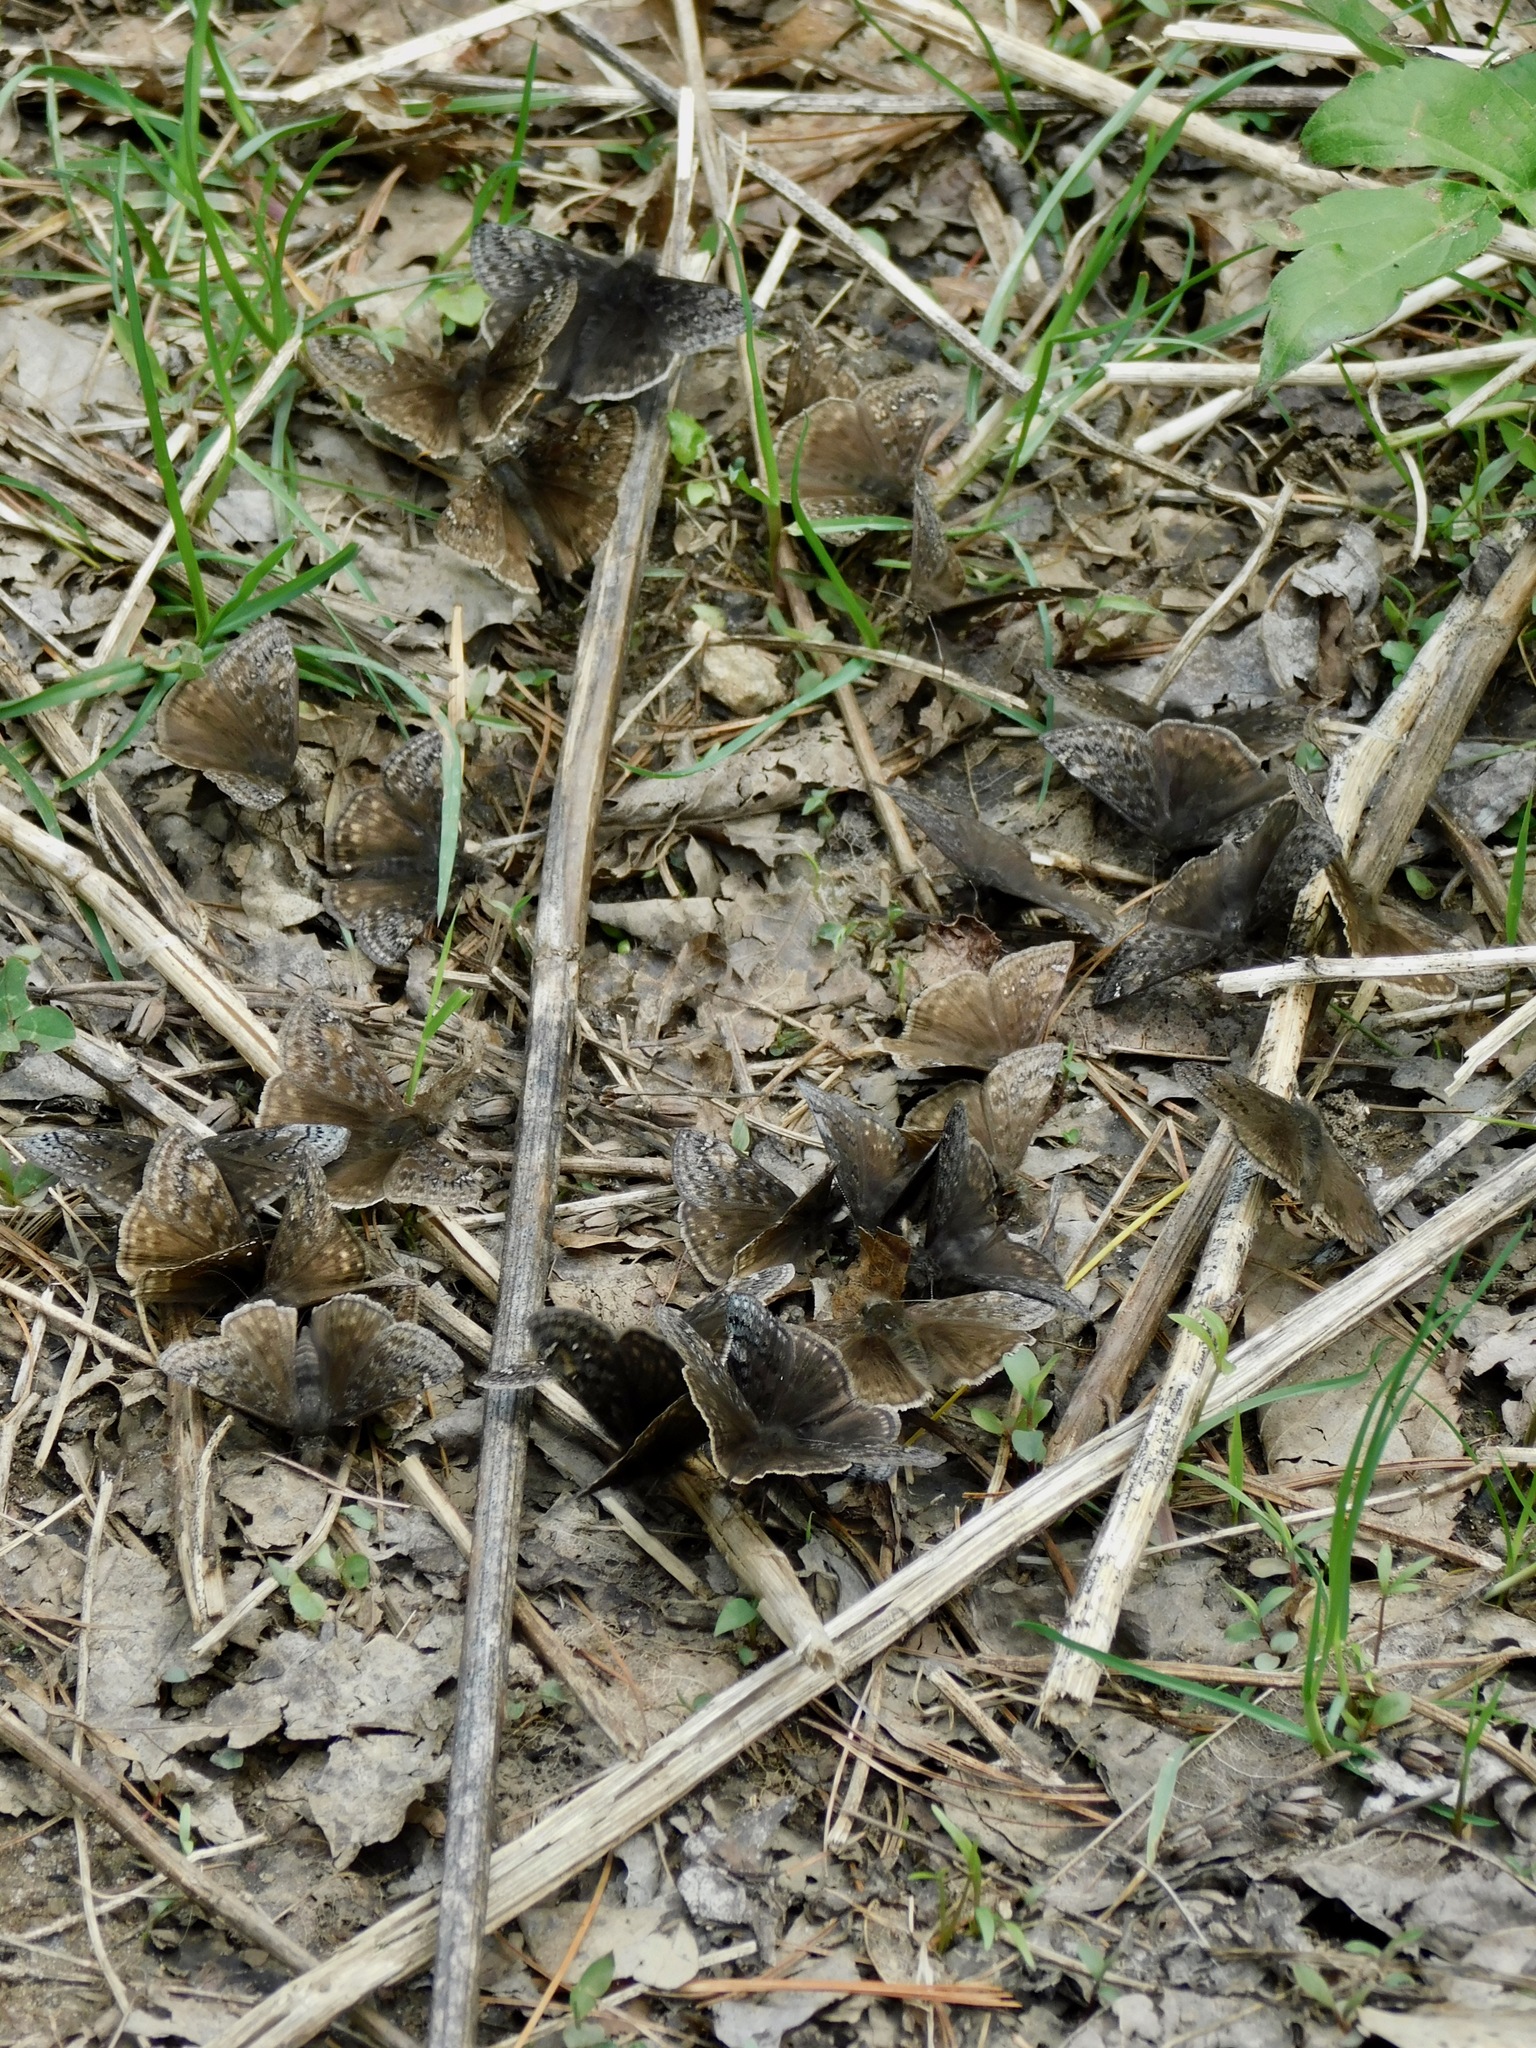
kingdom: Animalia
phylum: Arthropoda
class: Insecta
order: Lepidoptera
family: Hesperiidae
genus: Erynnis
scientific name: Erynnis juvenalis
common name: Juvenal's duskywing
